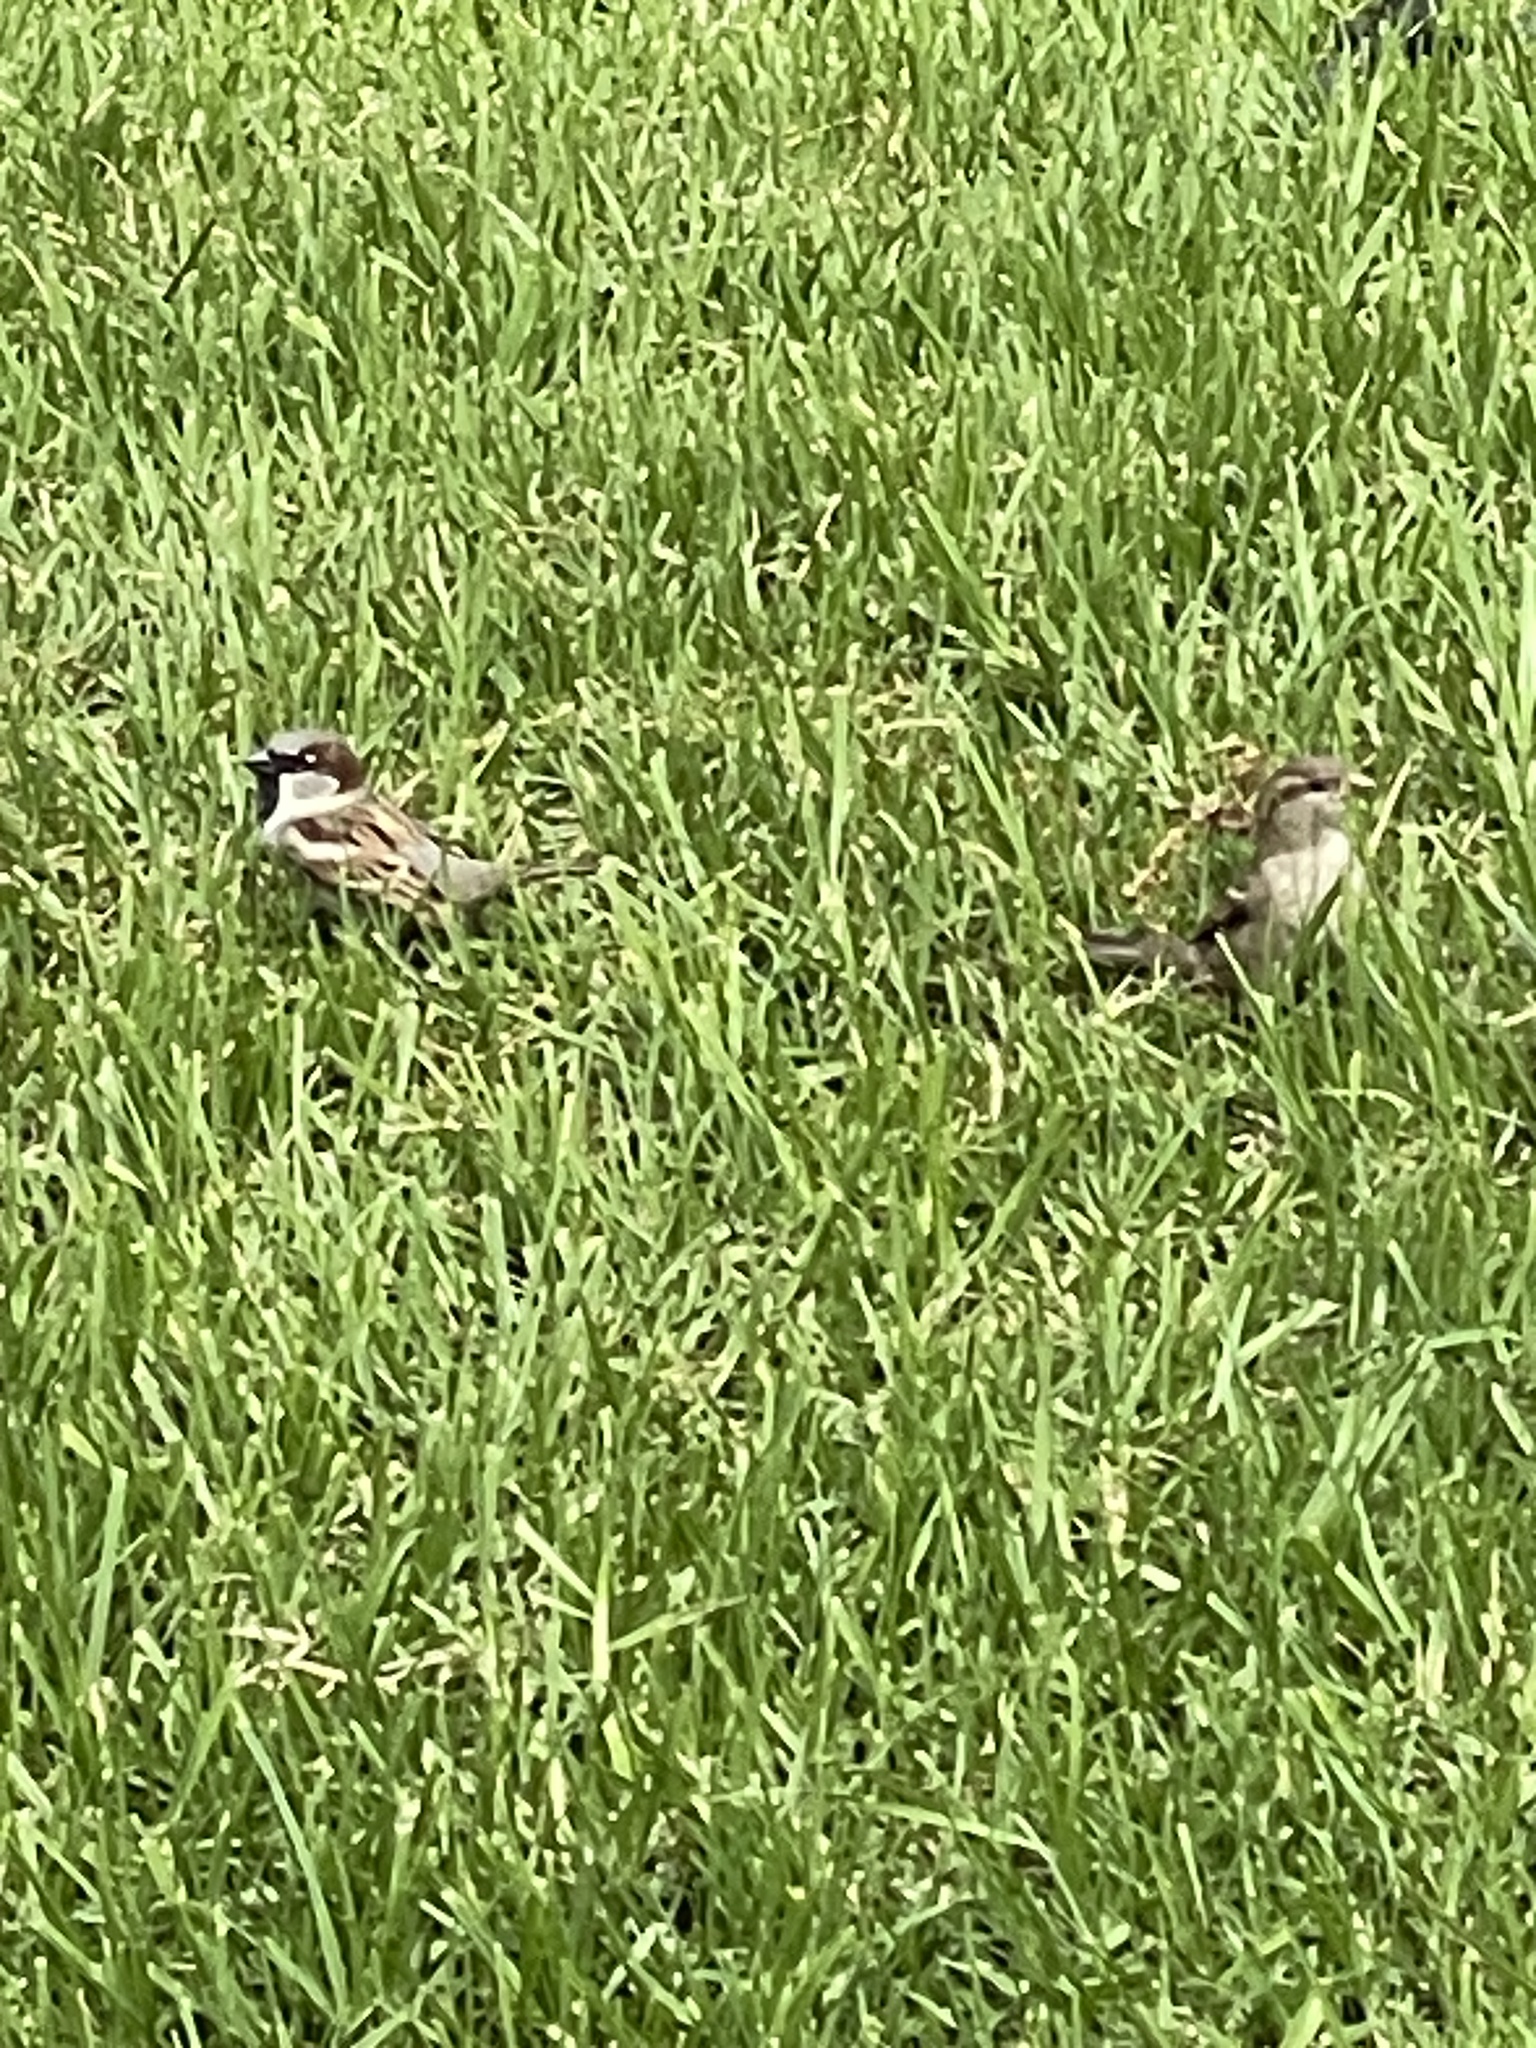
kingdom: Animalia
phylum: Chordata
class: Aves
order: Passeriformes
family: Passeridae
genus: Passer
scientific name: Passer domesticus
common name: House sparrow
